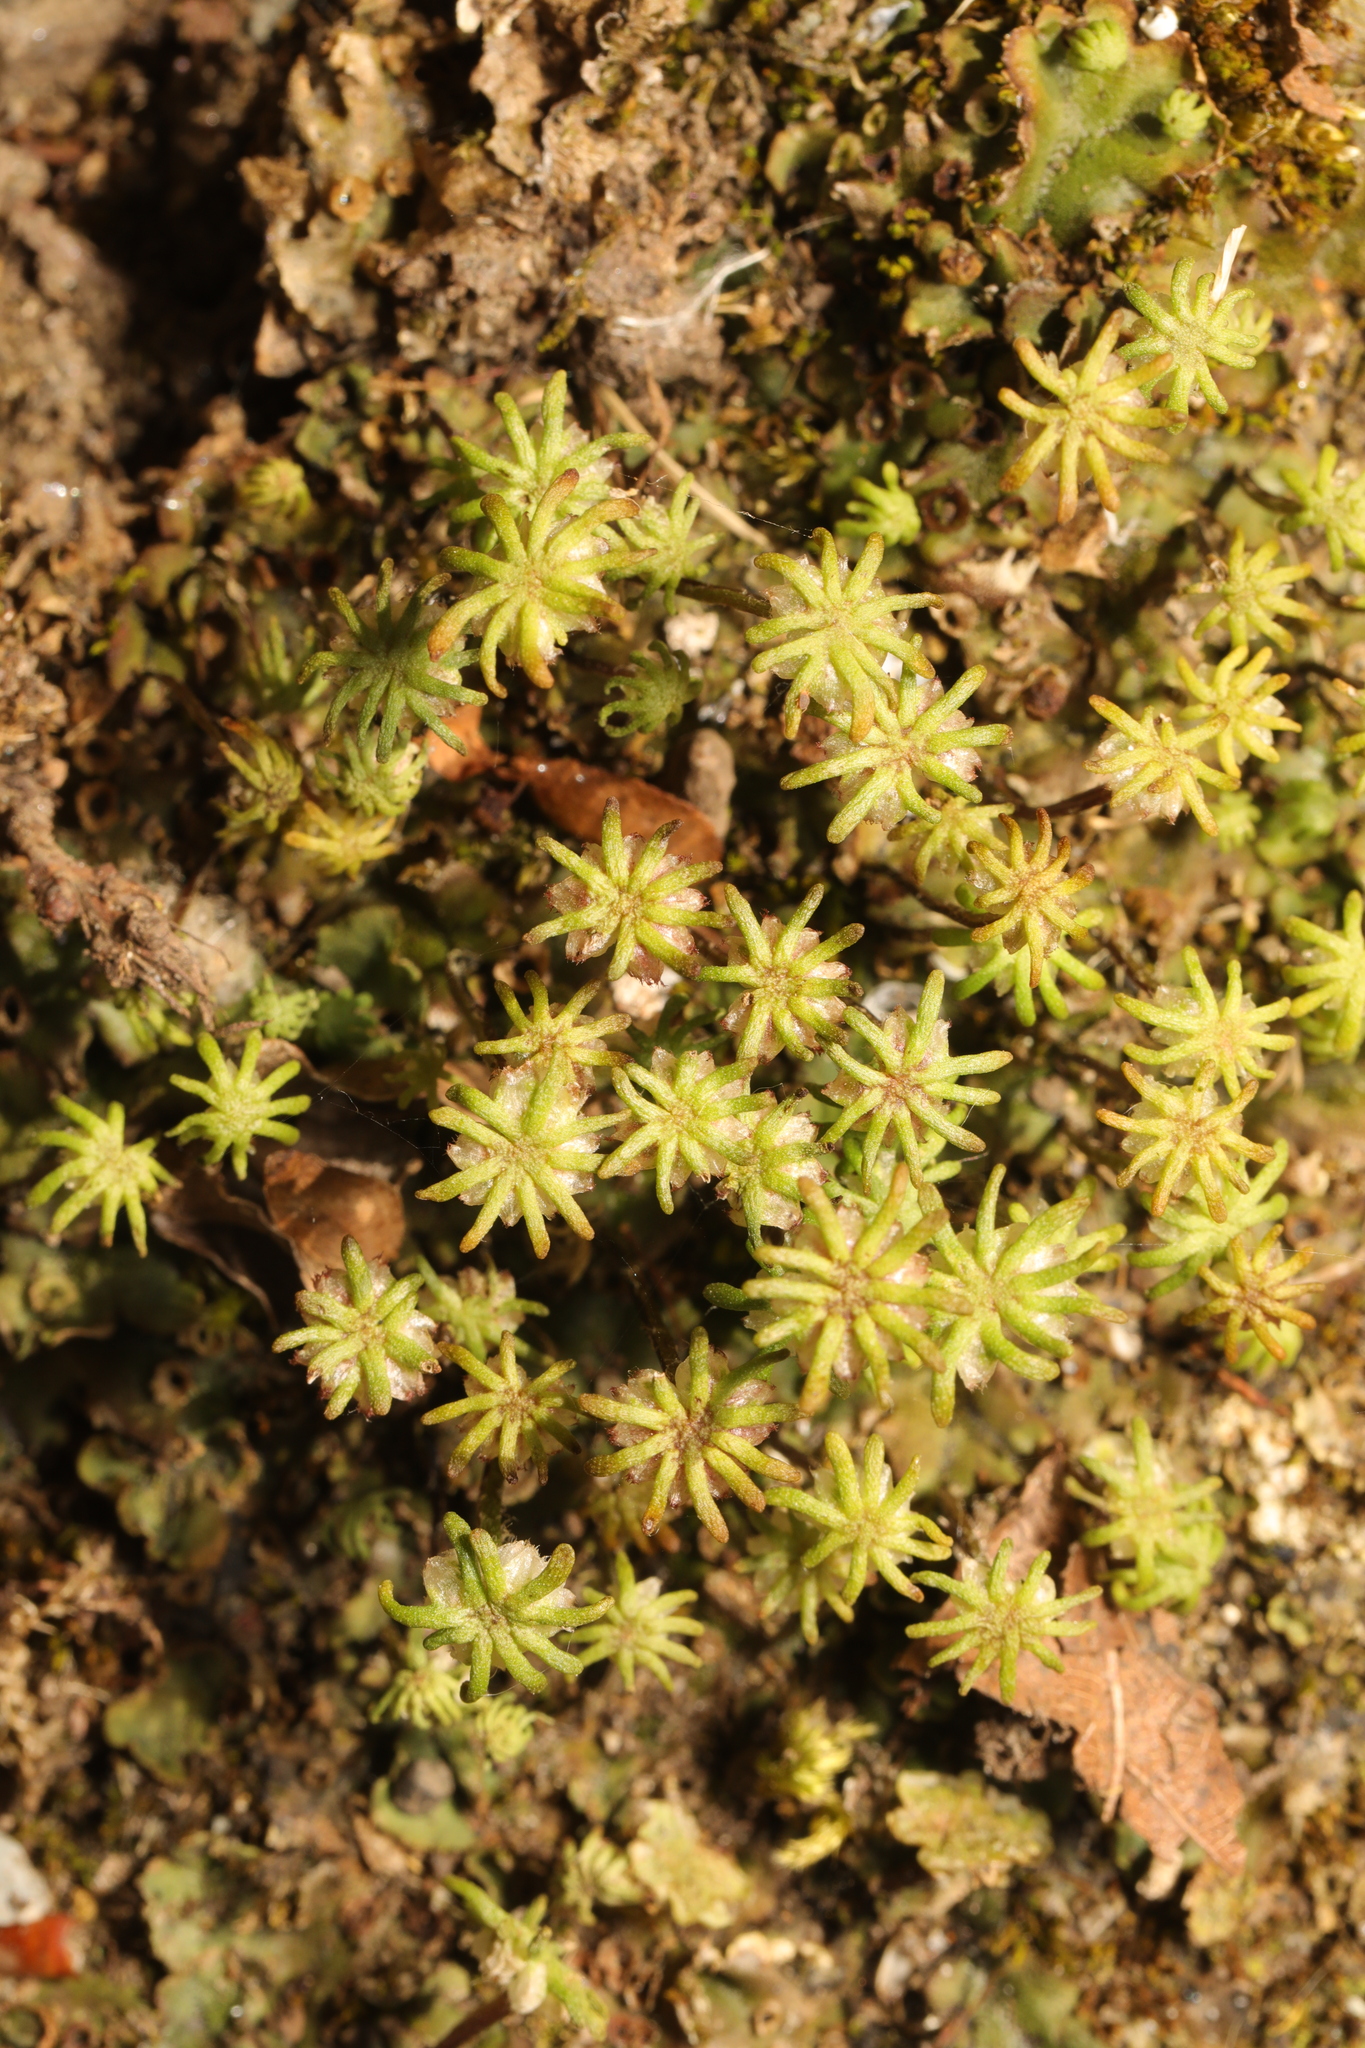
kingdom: Plantae
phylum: Marchantiophyta
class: Marchantiopsida
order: Marchantiales
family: Marchantiaceae
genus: Marchantia
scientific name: Marchantia polymorpha
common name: Common liverwort
